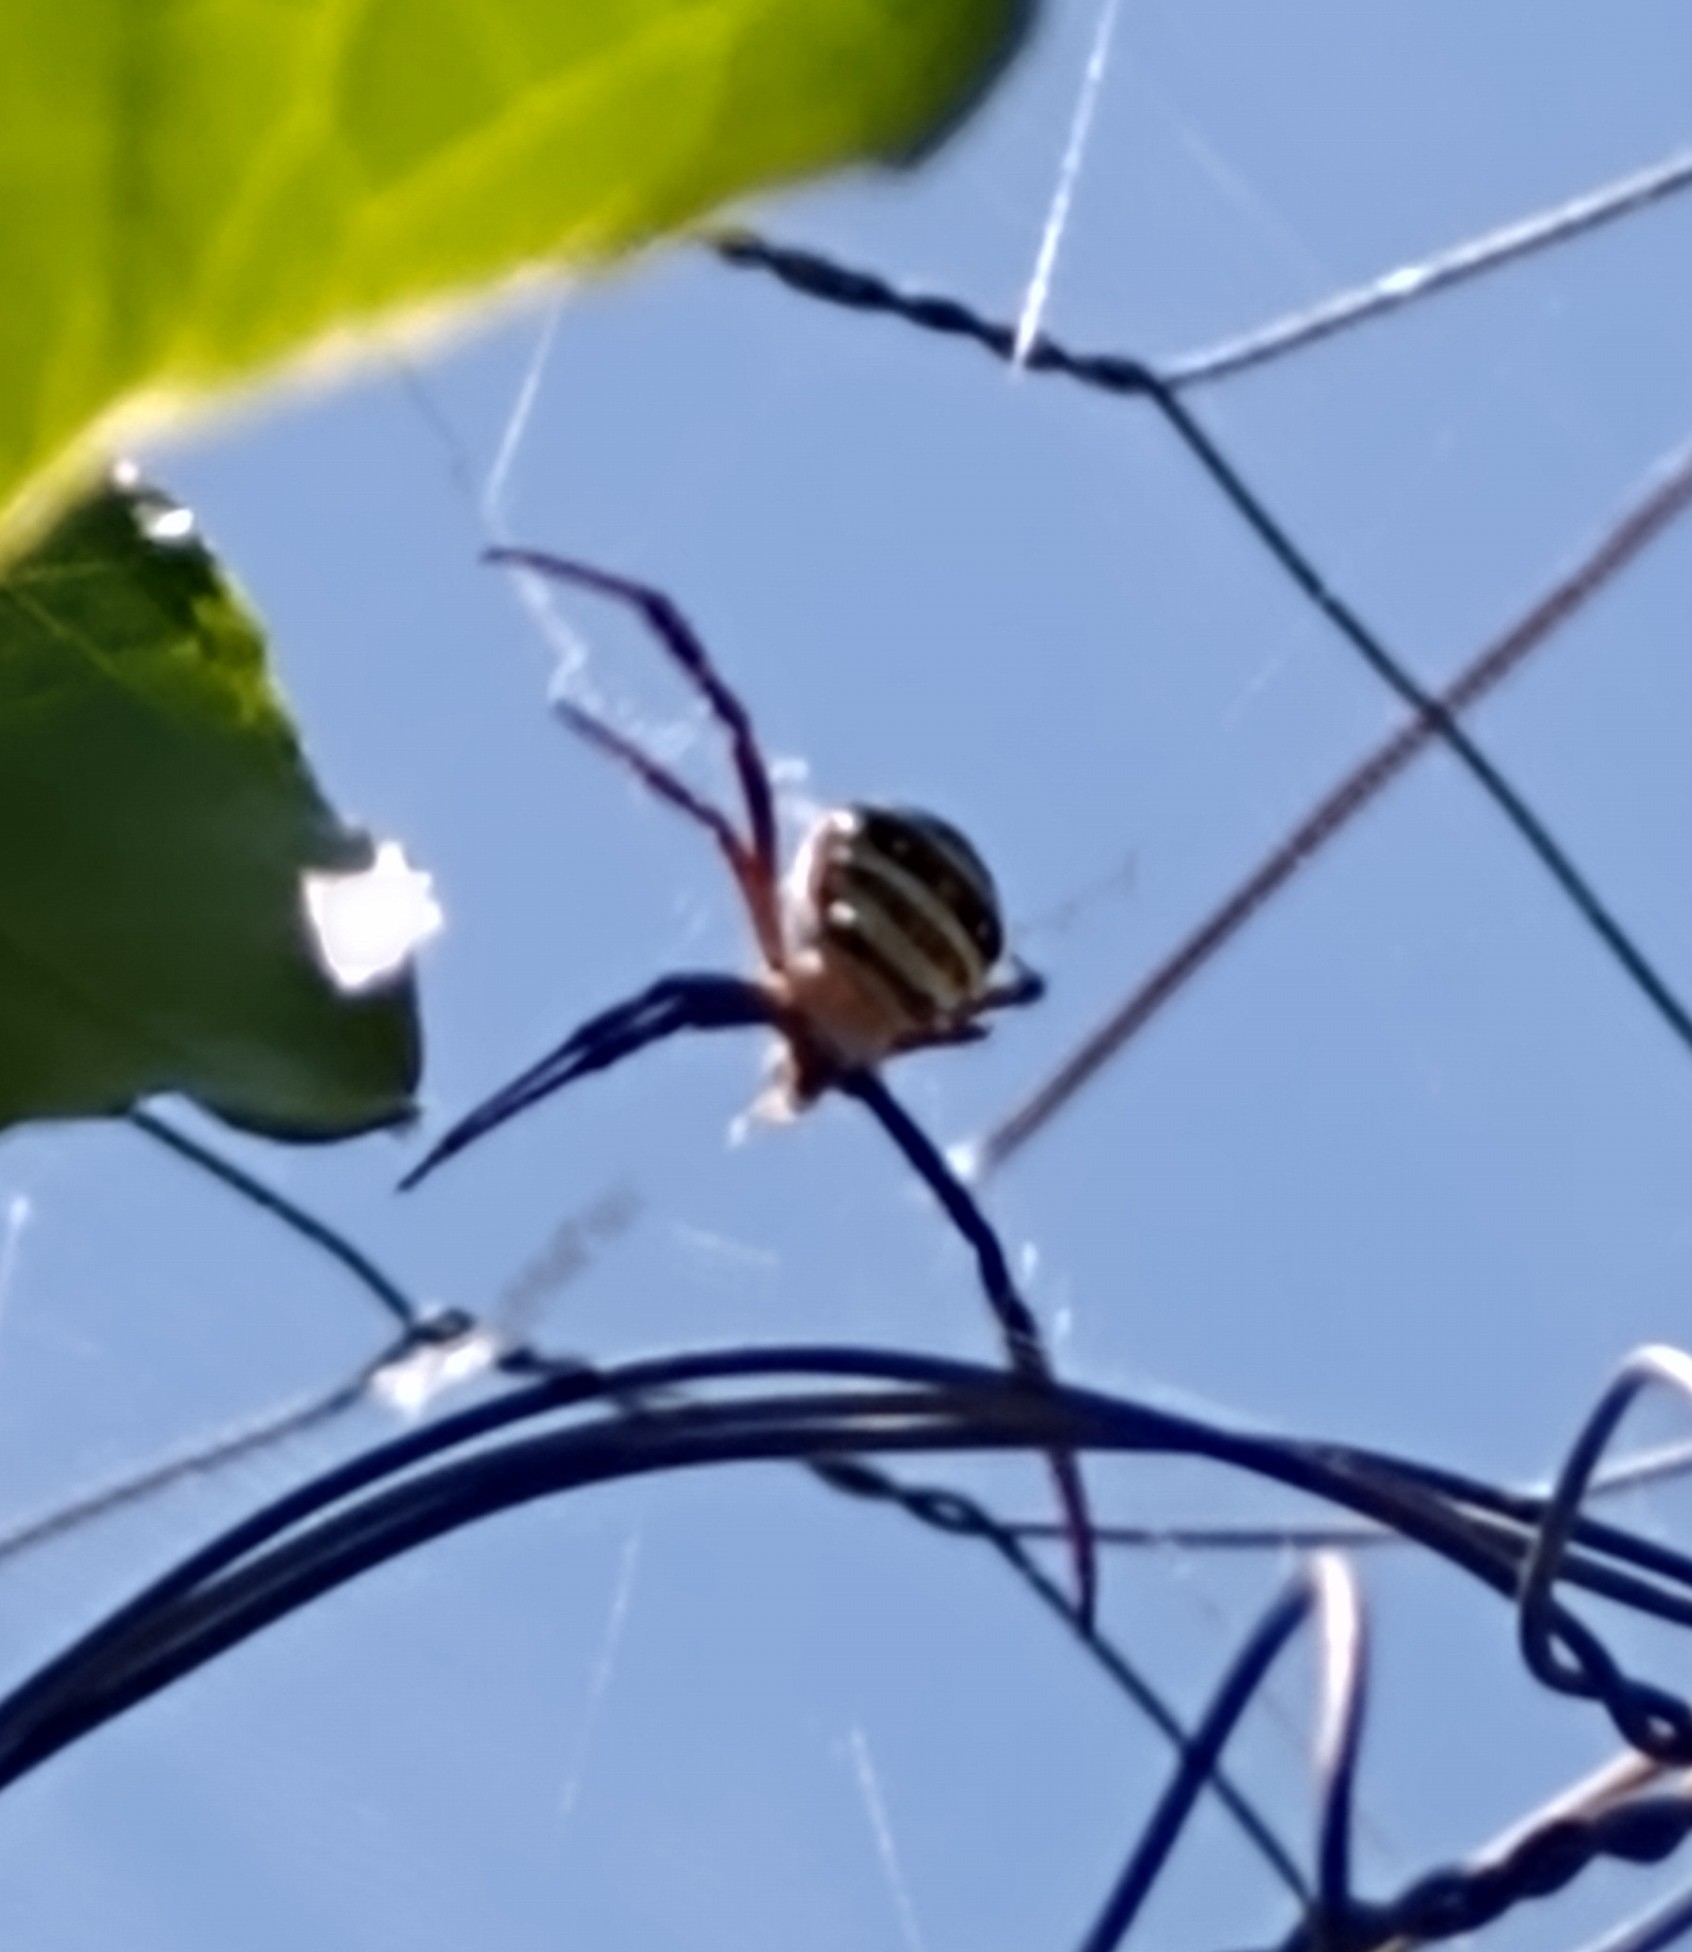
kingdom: Animalia
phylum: Arthropoda
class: Arachnida
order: Araneae
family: Araneidae
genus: Argiope
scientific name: Argiope keyserlingi
